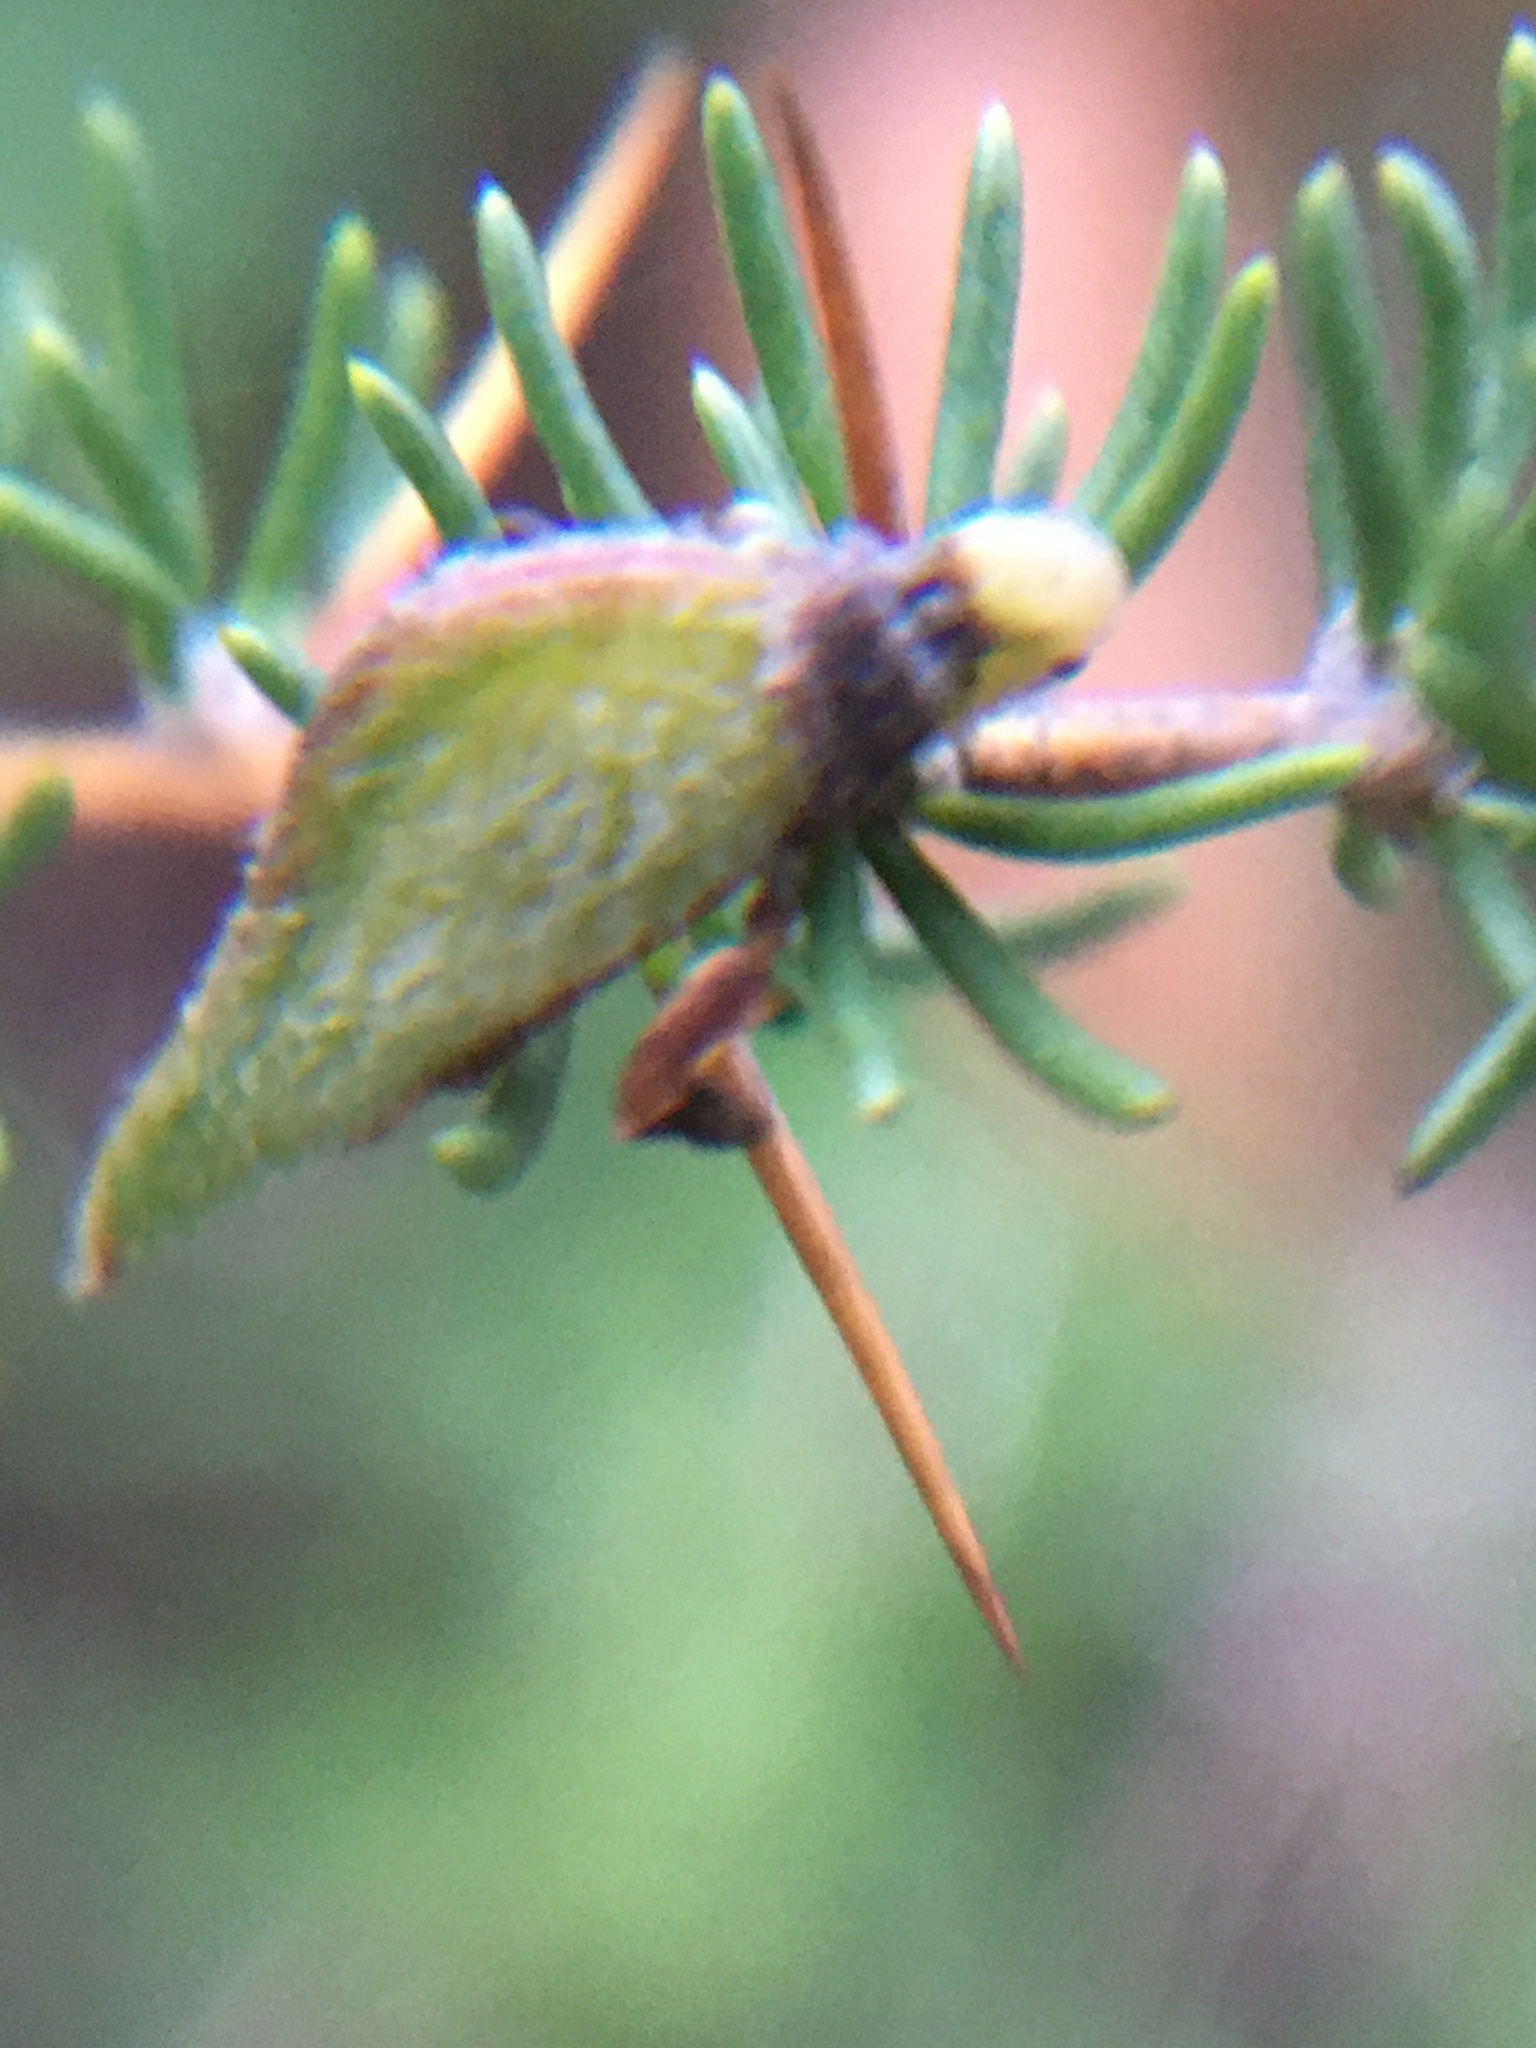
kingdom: Plantae
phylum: Tracheophyta
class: Magnoliopsida
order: Fabales
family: Fabaceae
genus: Aspalathus
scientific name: Aspalathus spinosa
